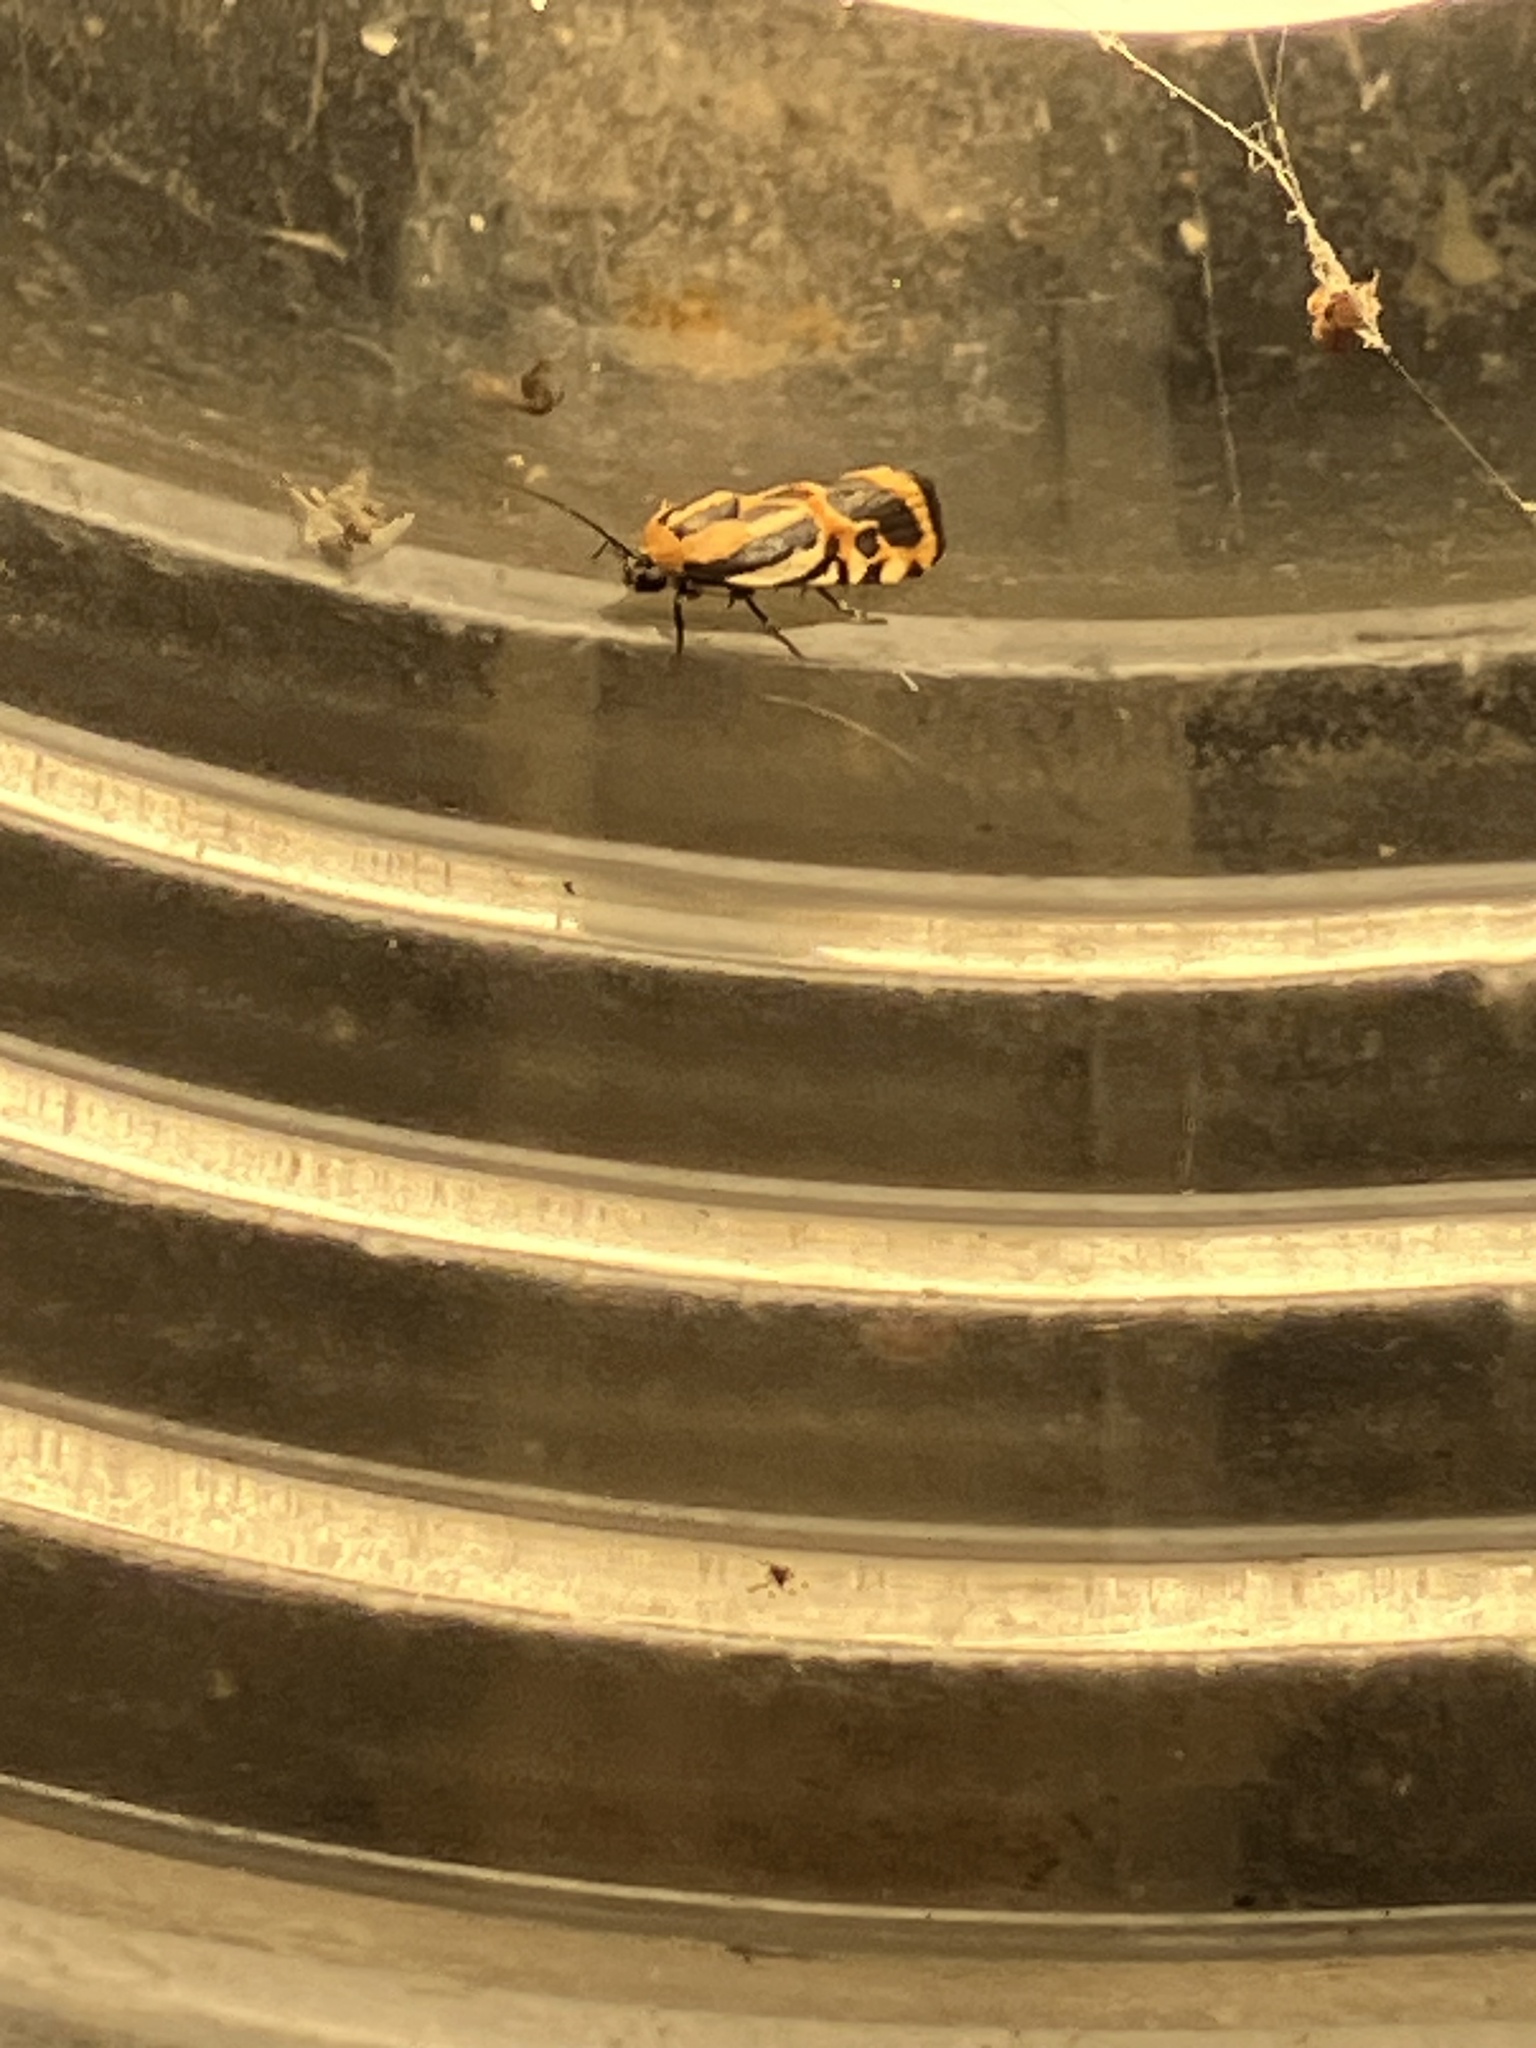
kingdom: Animalia
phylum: Arthropoda
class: Insecta
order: Lepidoptera
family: Noctuidae
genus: Acontia
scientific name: Acontia onagrus
